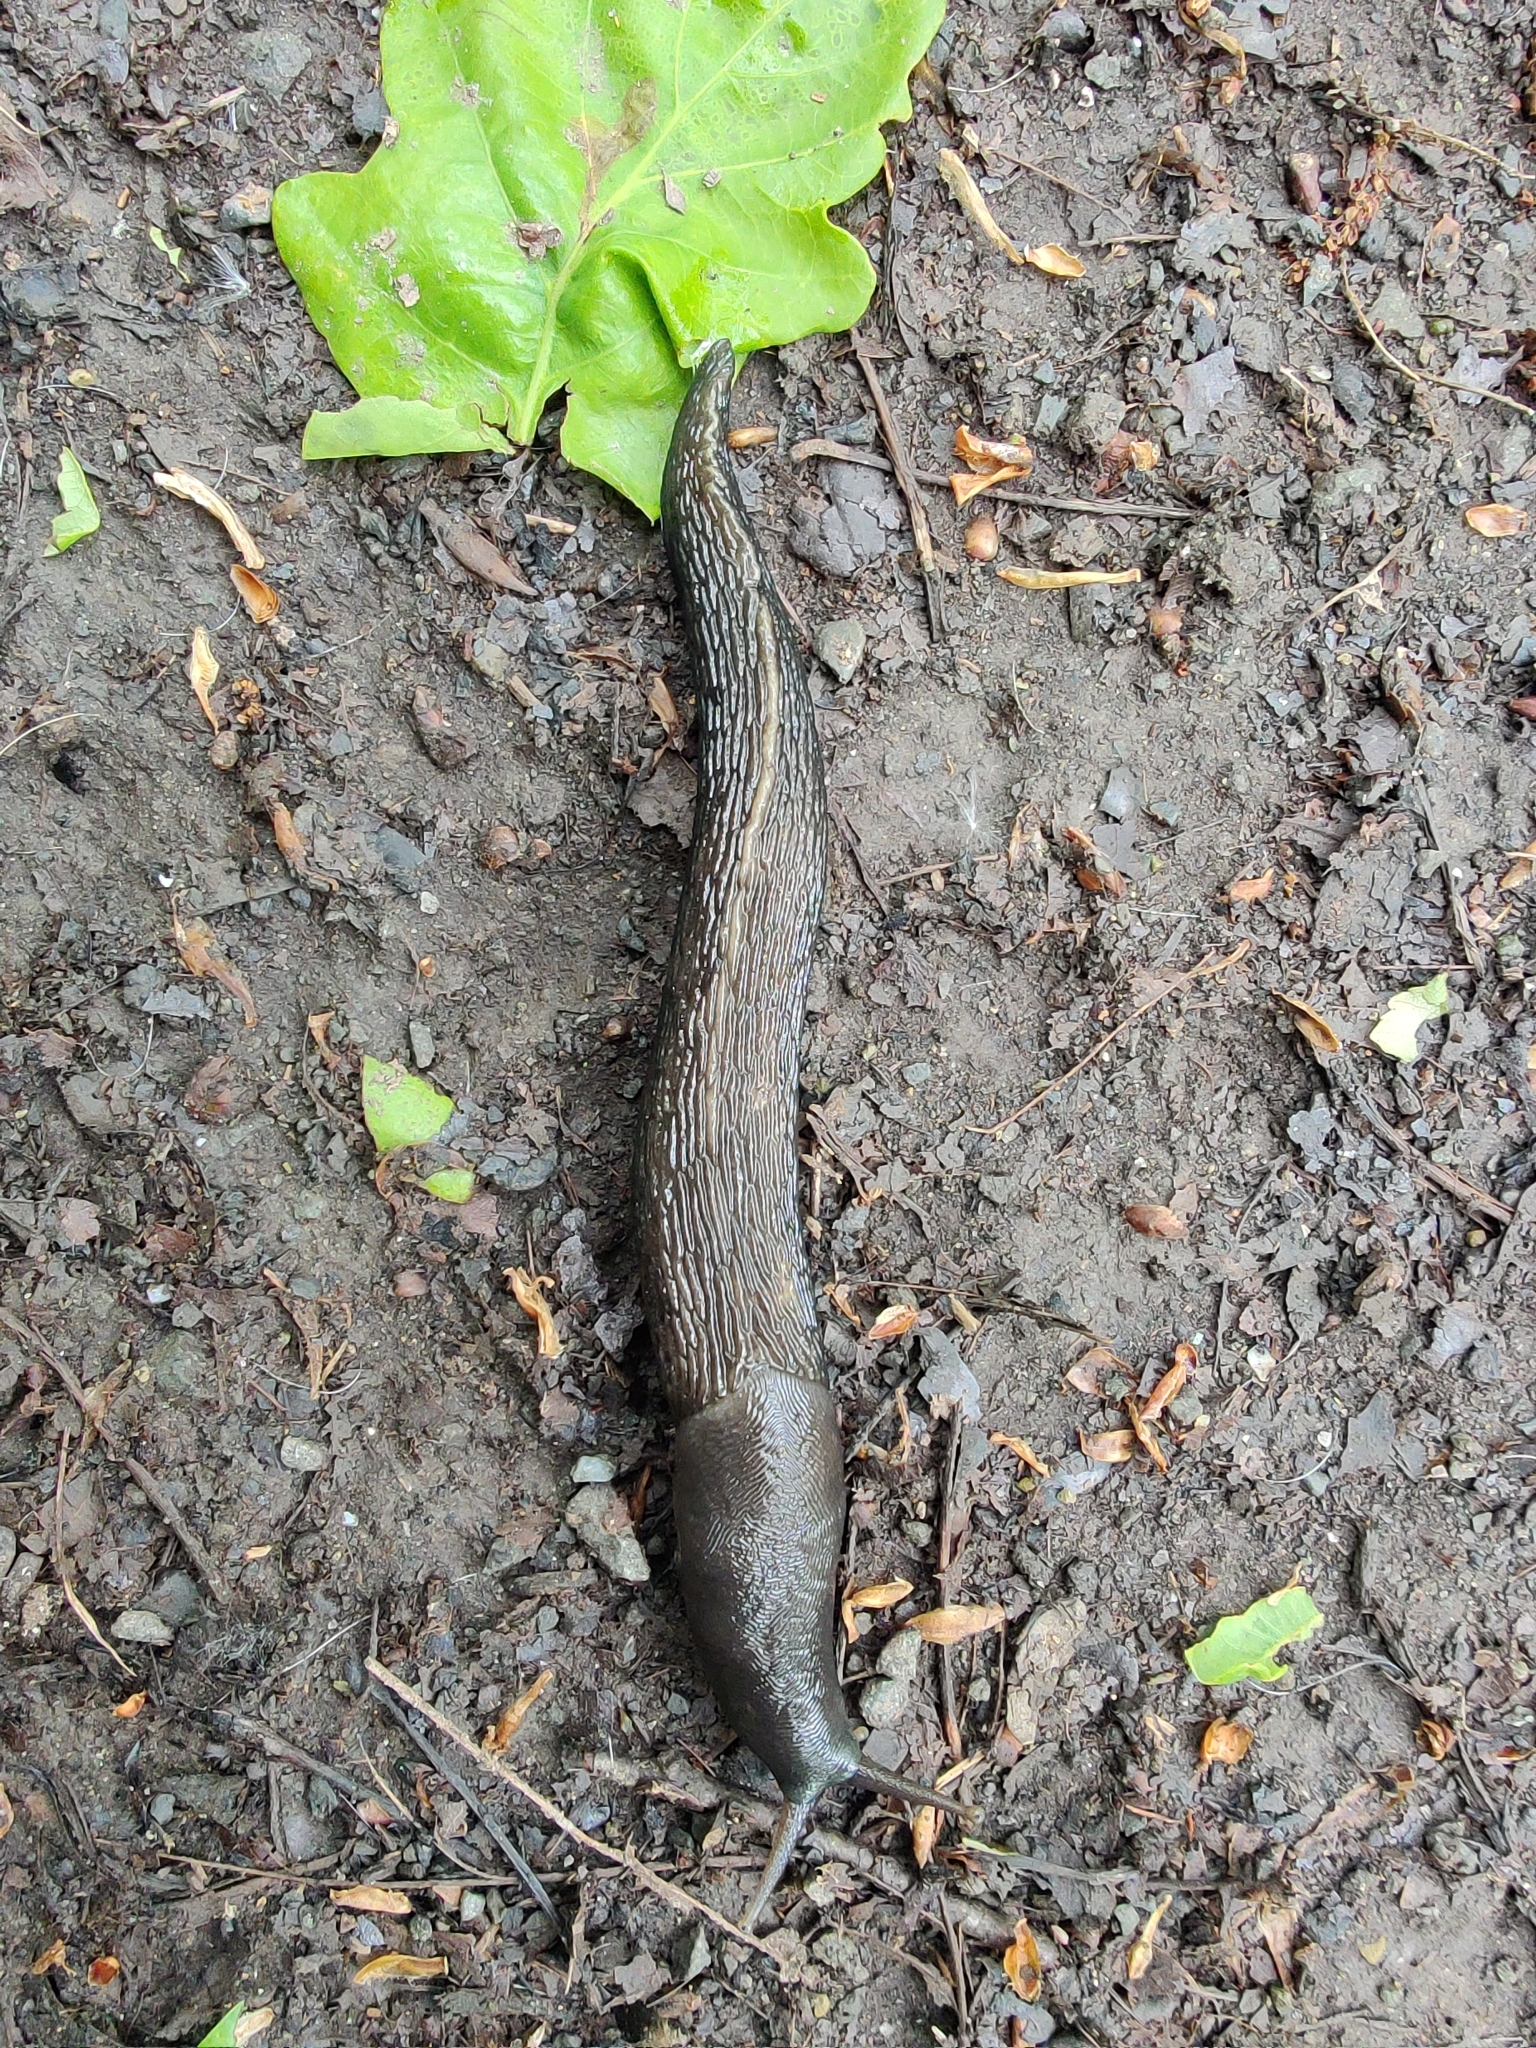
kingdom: Animalia
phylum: Mollusca
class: Gastropoda
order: Stylommatophora
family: Limacidae
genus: Limax
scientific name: Limax cinereoniger
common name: Ash-black slug
